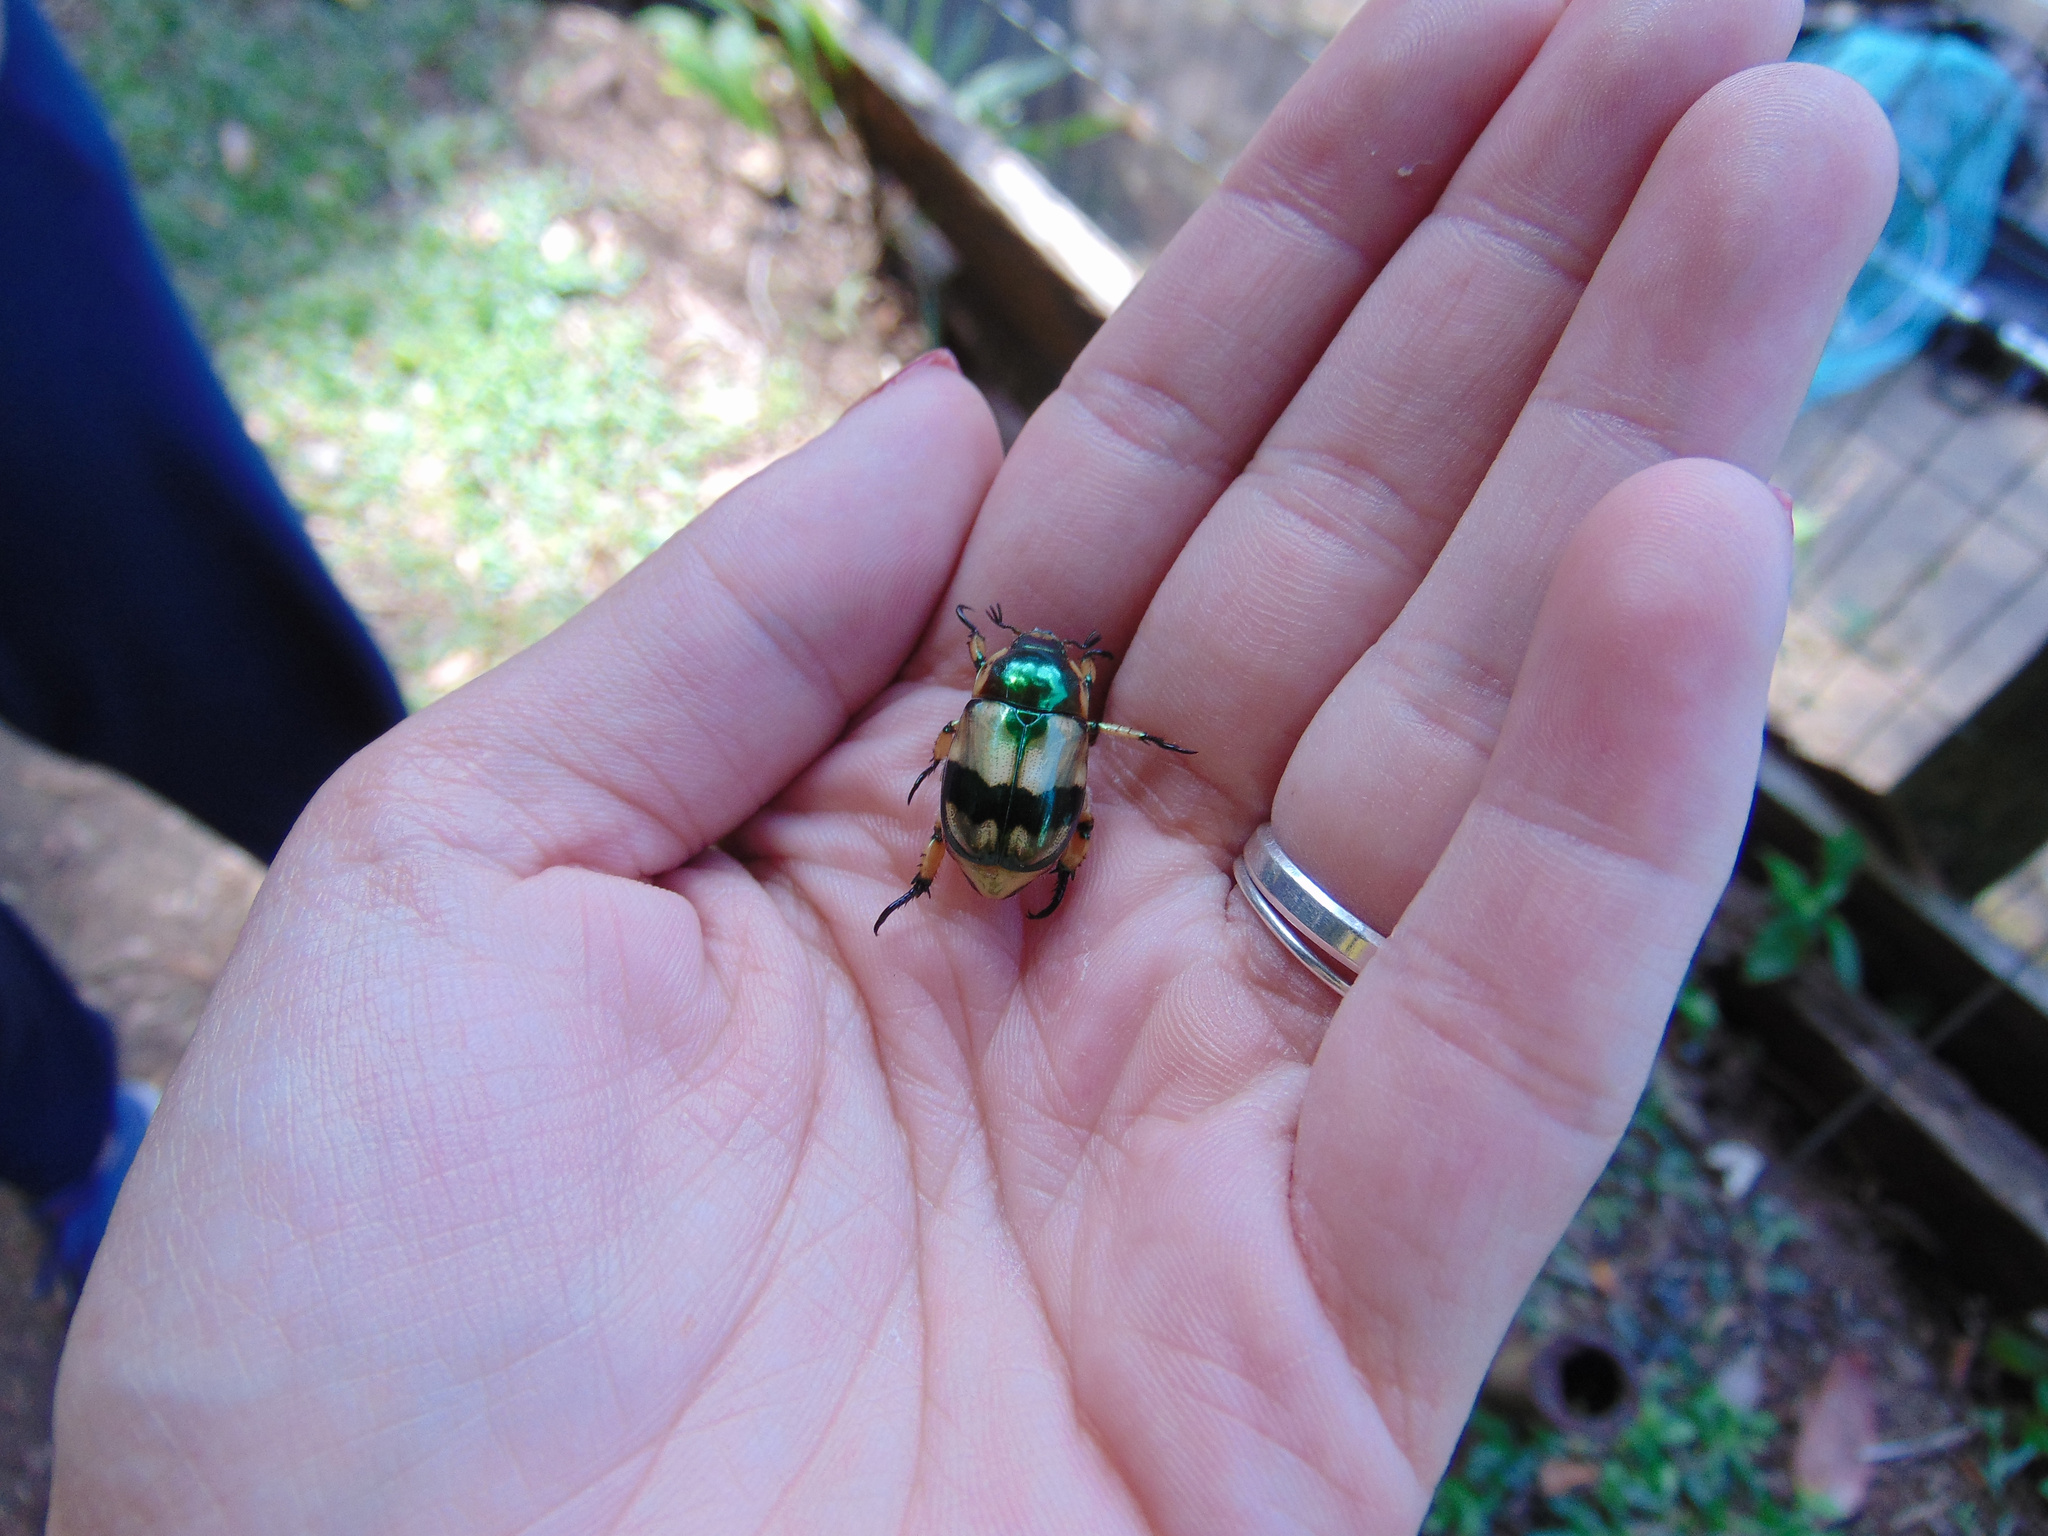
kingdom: Animalia
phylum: Arthropoda
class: Insecta
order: Coleoptera
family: Scarabaeidae
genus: Pelidnota
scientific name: Pelidnota pulchella
